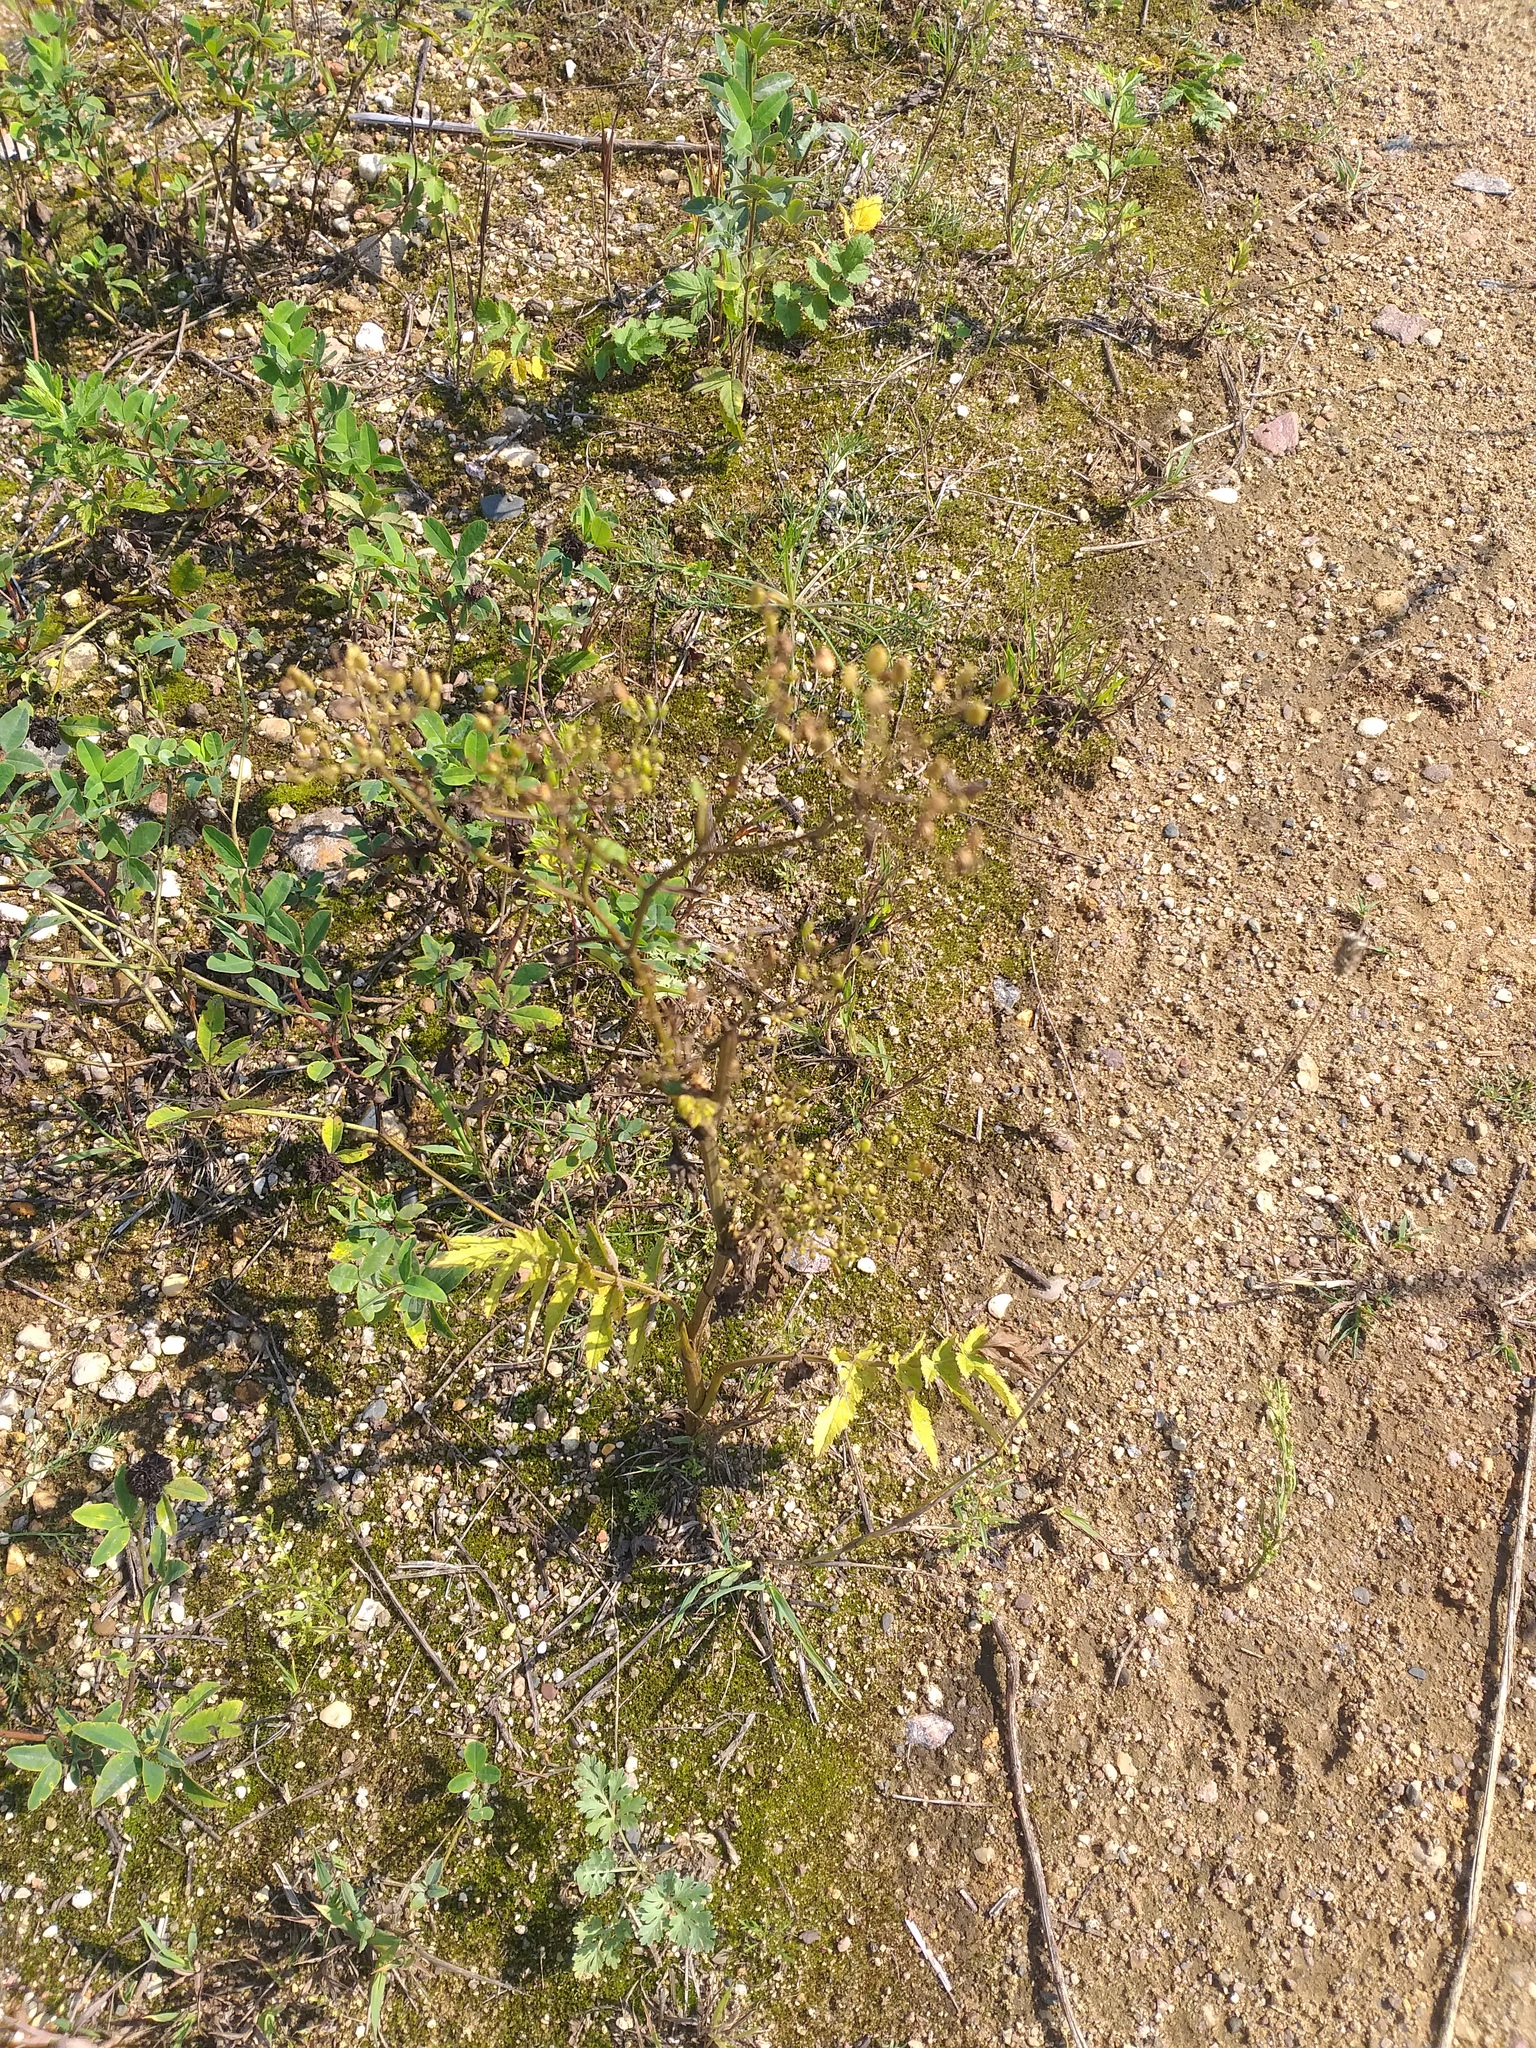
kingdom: Plantae
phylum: Tracheophyta
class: Magnoliopsida
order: Apiales
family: Apiaceae
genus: Pastinaca
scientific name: Pastinaca sativa
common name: Wild parsnip
